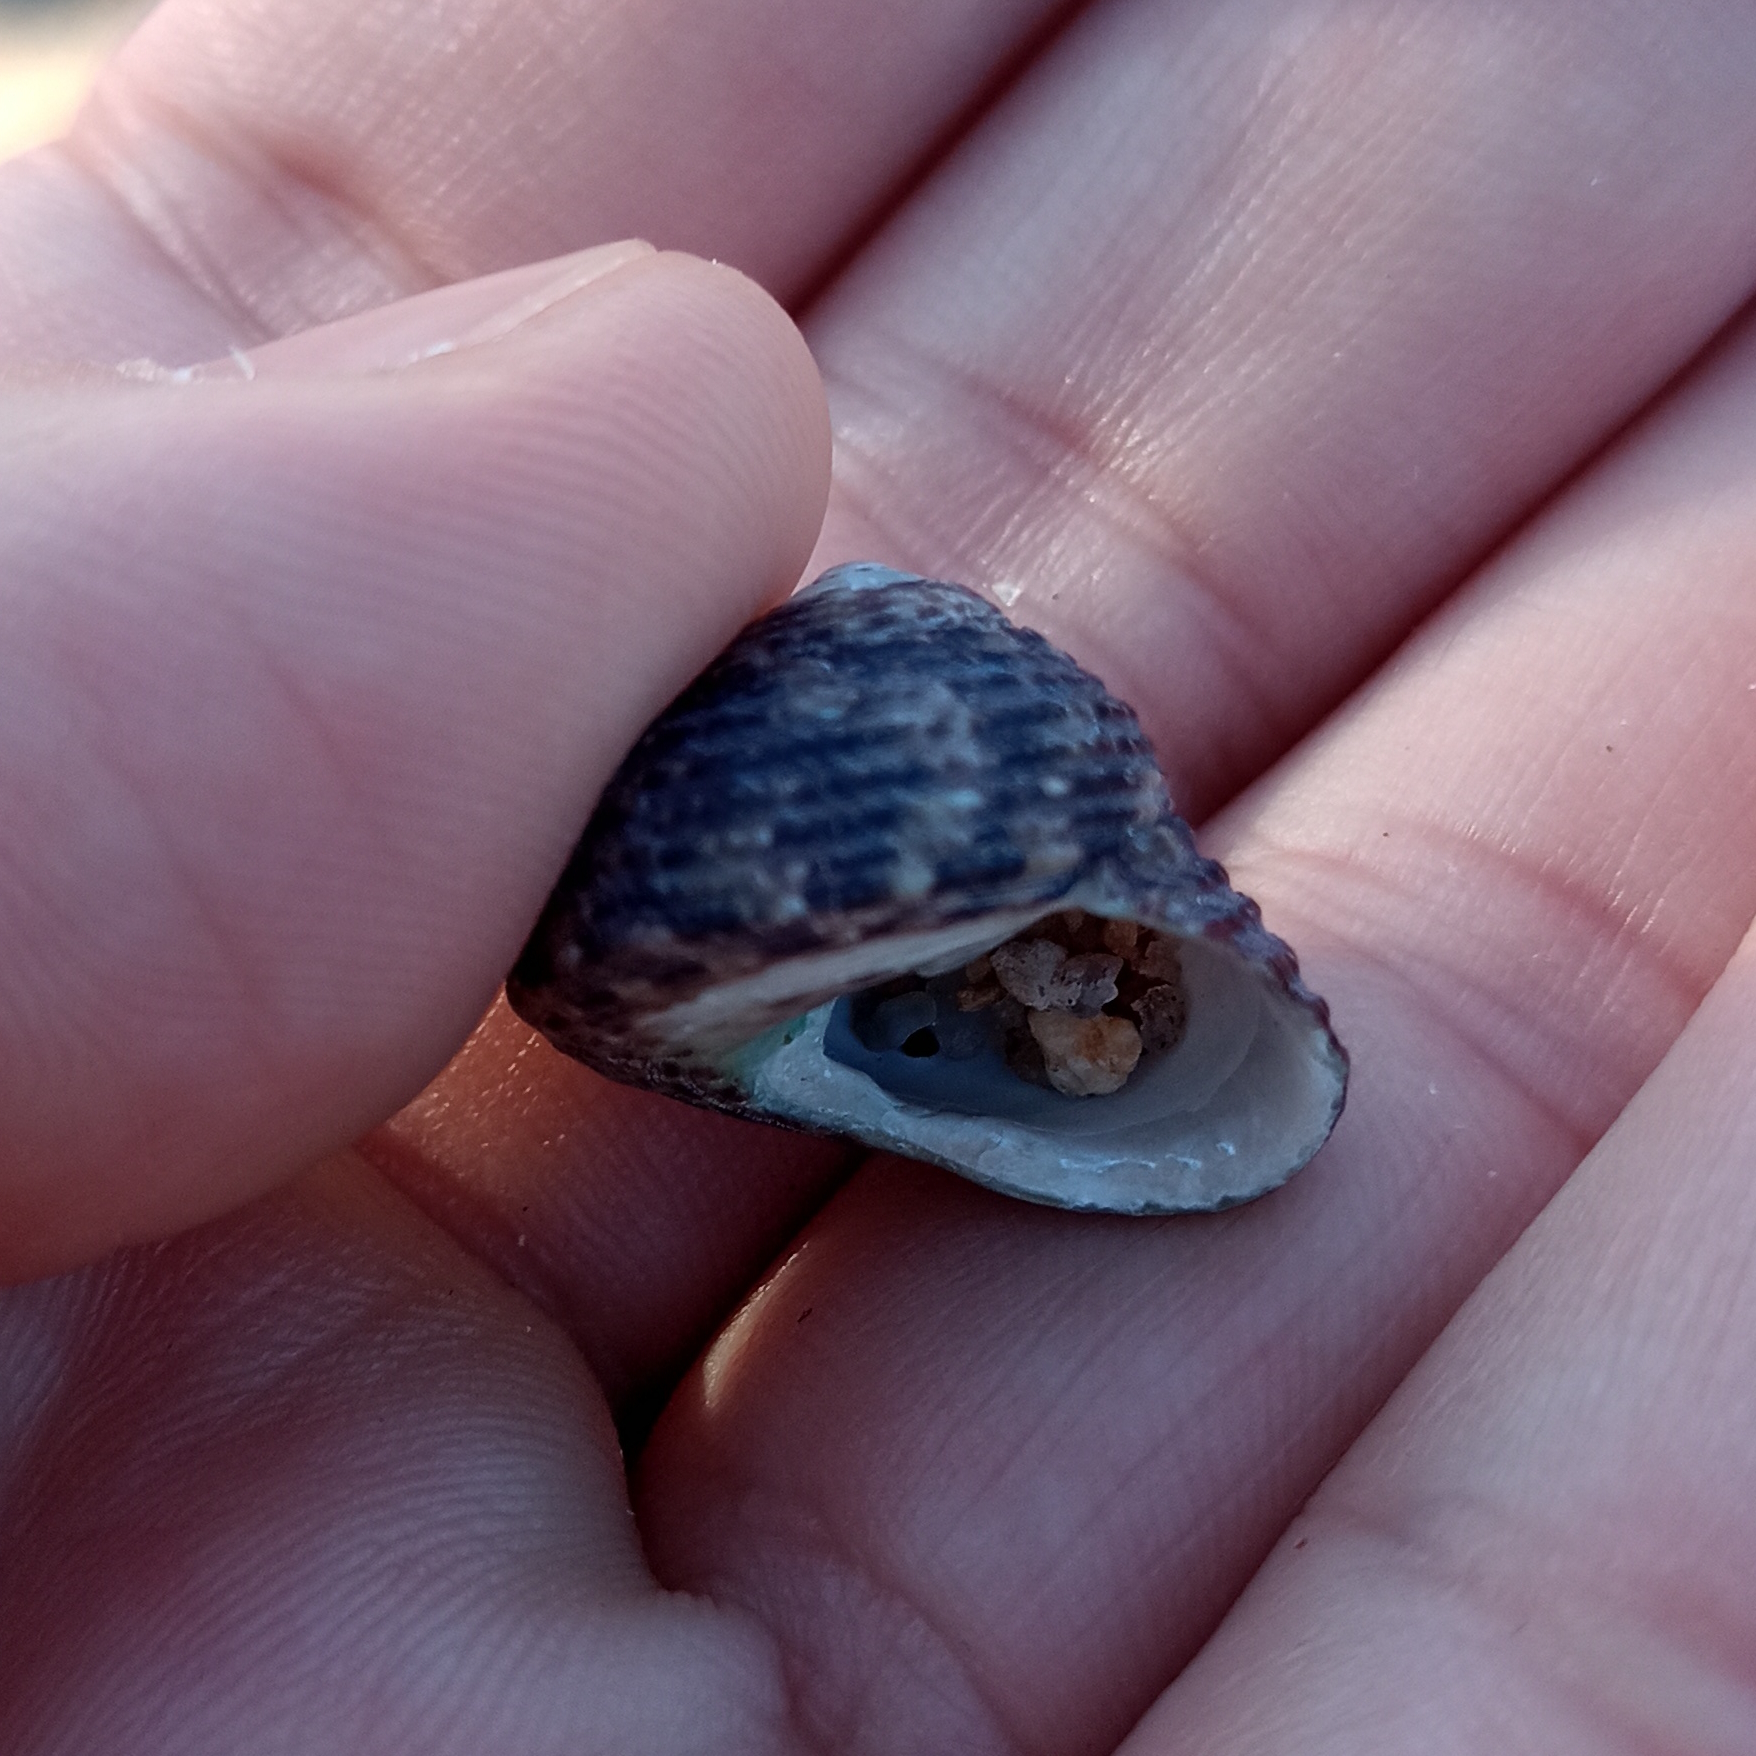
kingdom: Animalia
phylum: Mollusca
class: Gastropoda
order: Trochida
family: Tegulidae
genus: Agathistoma
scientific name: Agathistoma viridulum
